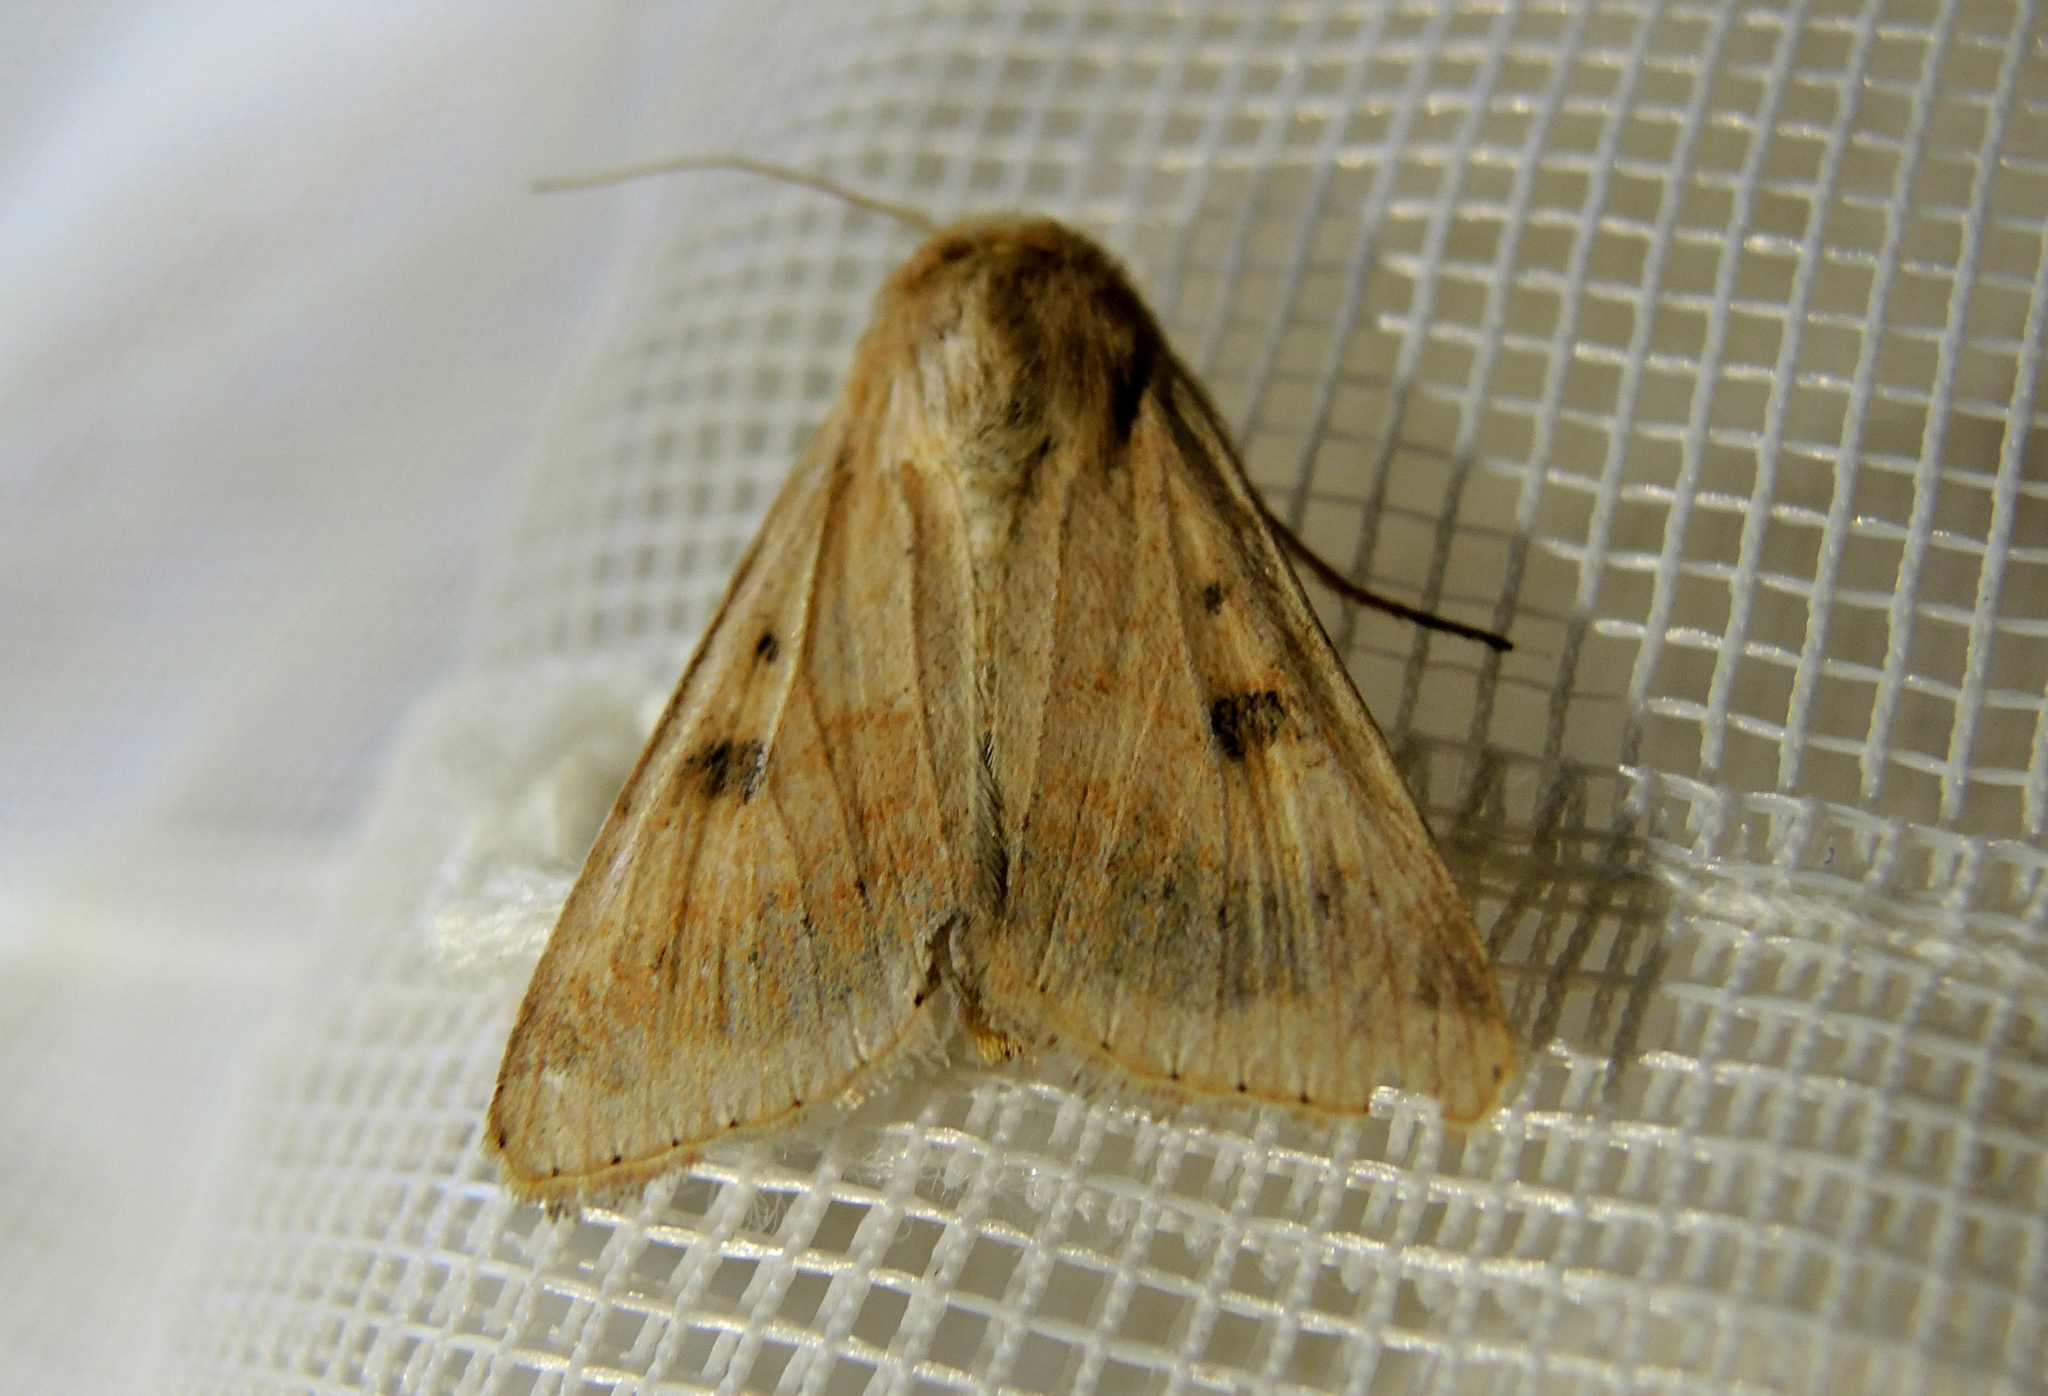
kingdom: Animalia
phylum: Arthropoda
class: Insecta
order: Lepidoptera
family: Noctuidae
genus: Helicoverpa
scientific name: Helicoverpa armigera
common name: Cotton bollworm
